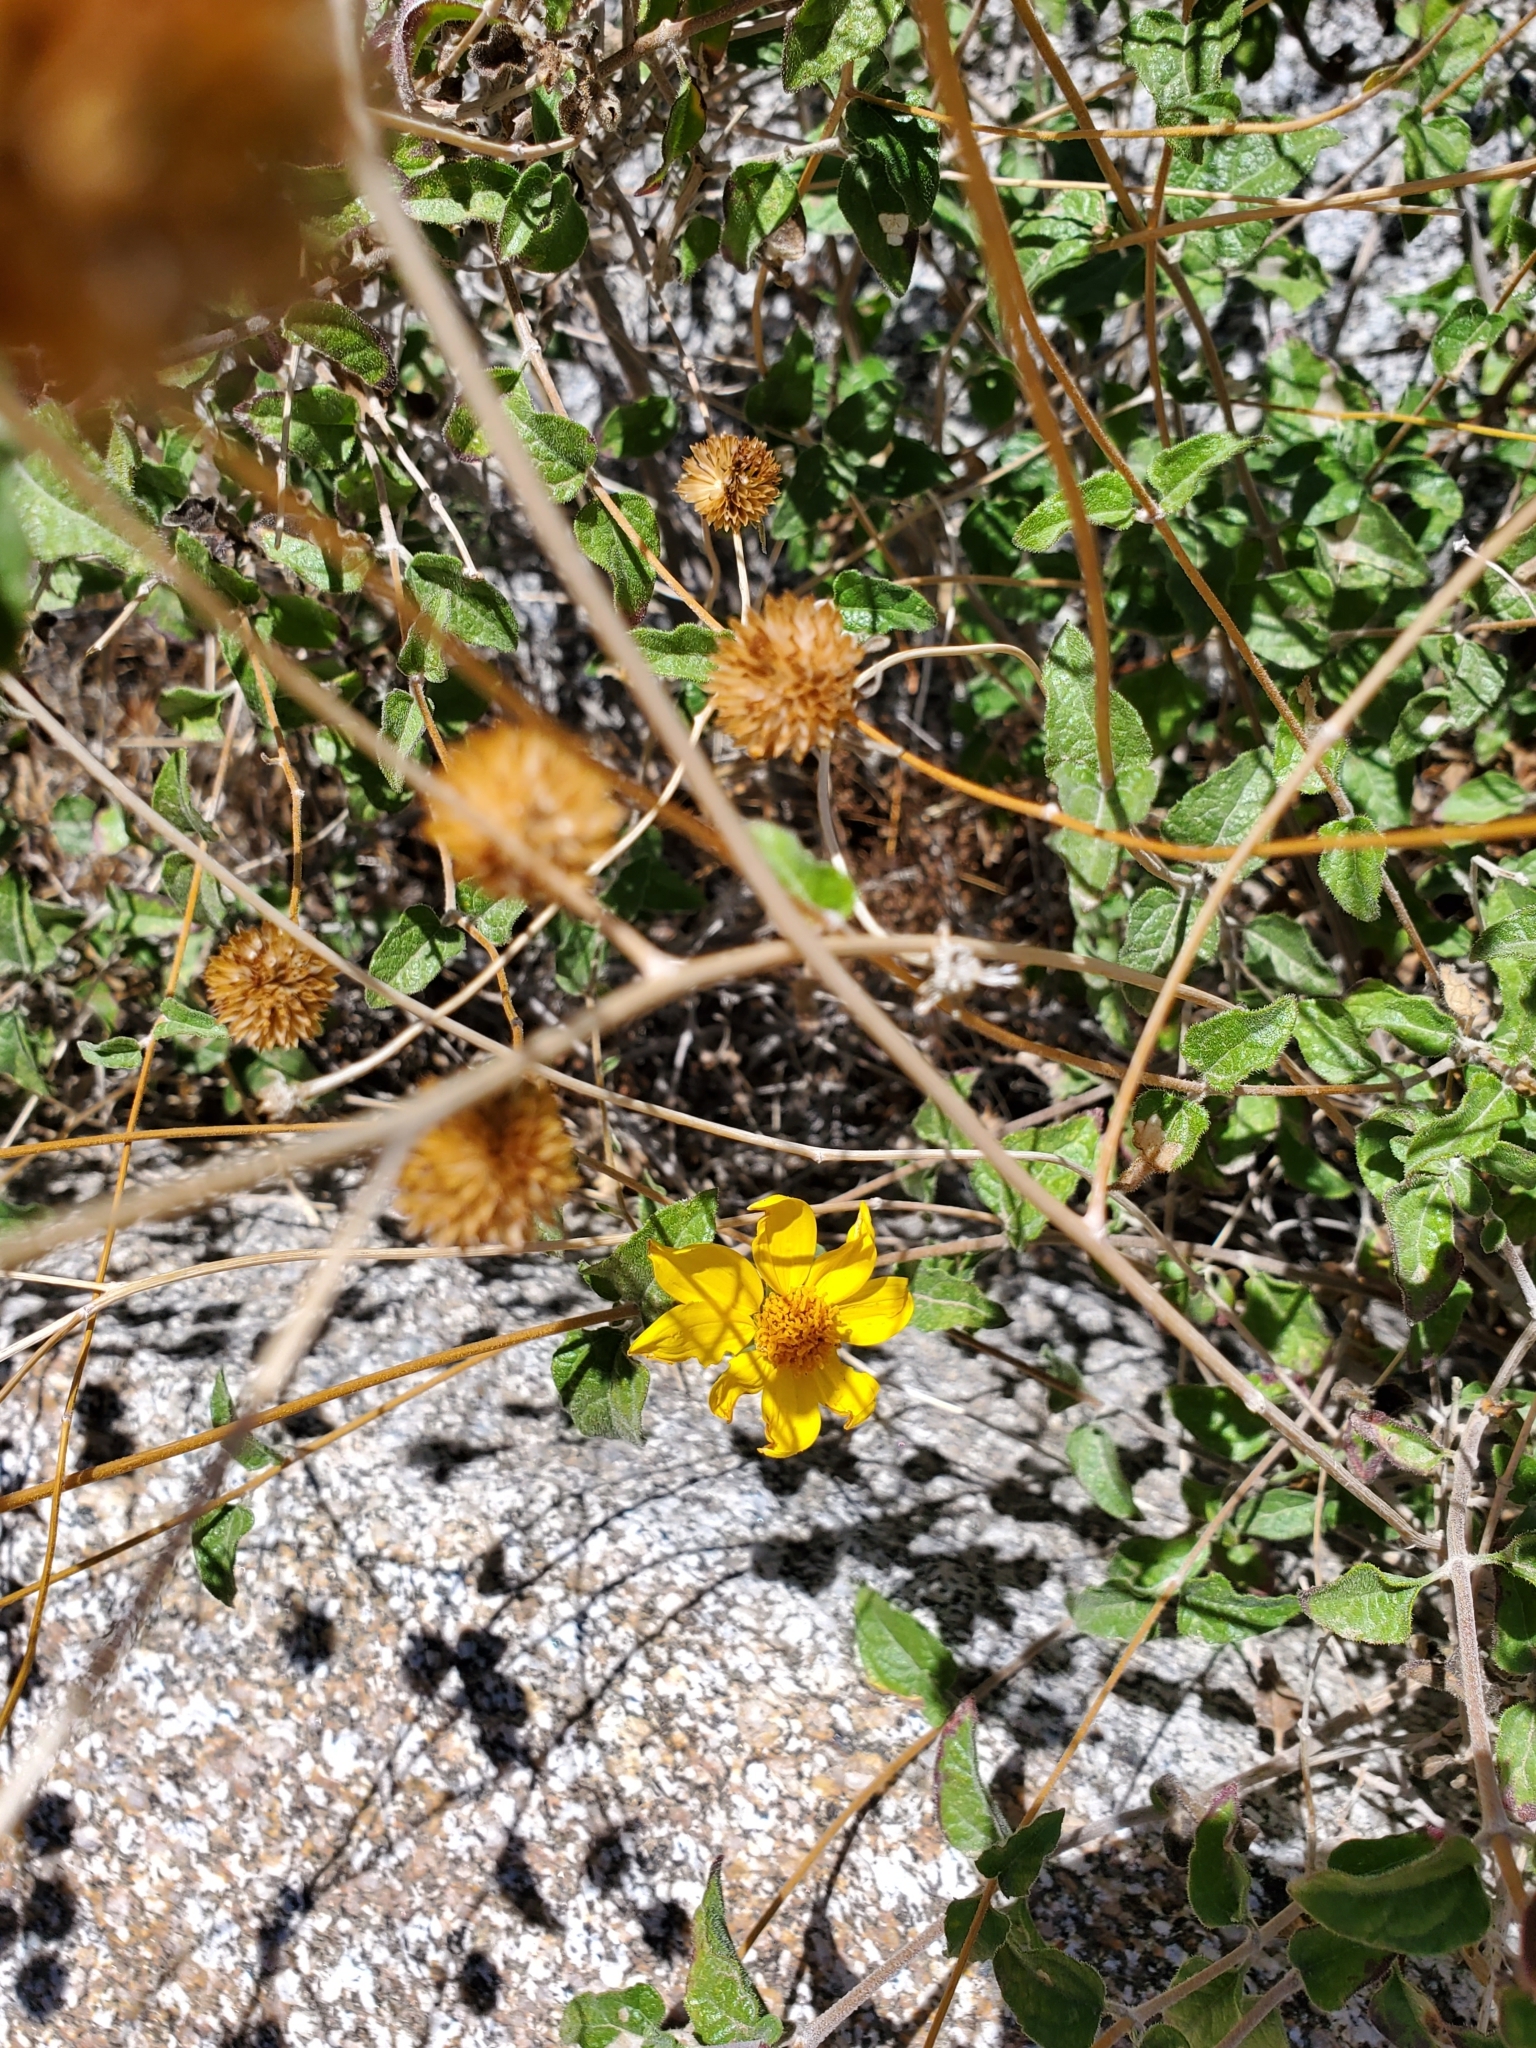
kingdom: Plantae
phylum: Tracheophyta
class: Magnoliopsida
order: Asterales
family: Asteraceae
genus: Bahiopsis
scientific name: Bahiopsis parishii
